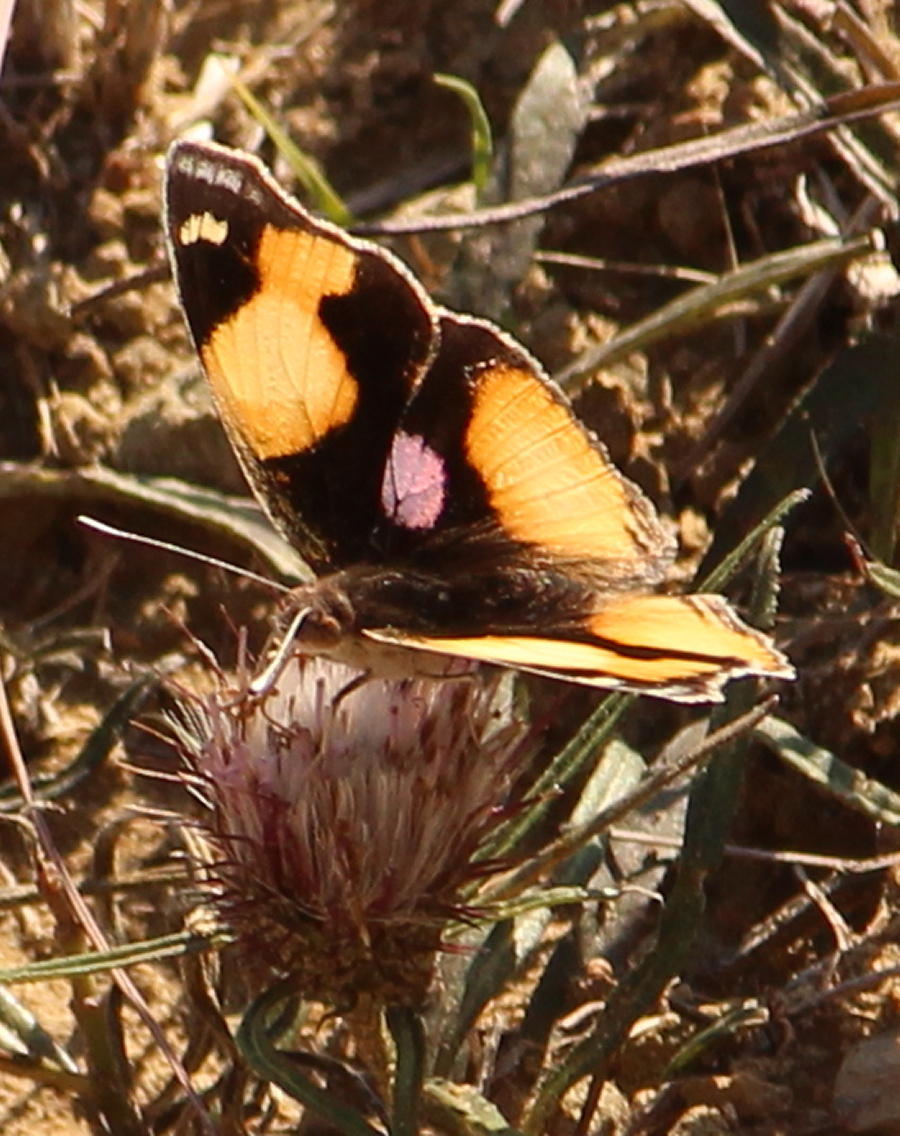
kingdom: Animalia
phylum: Arthropoda
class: Insecta
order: Lepidoptera
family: Nymphalidae
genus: Junonia
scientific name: Junonia hierta
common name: Yellow pansy
